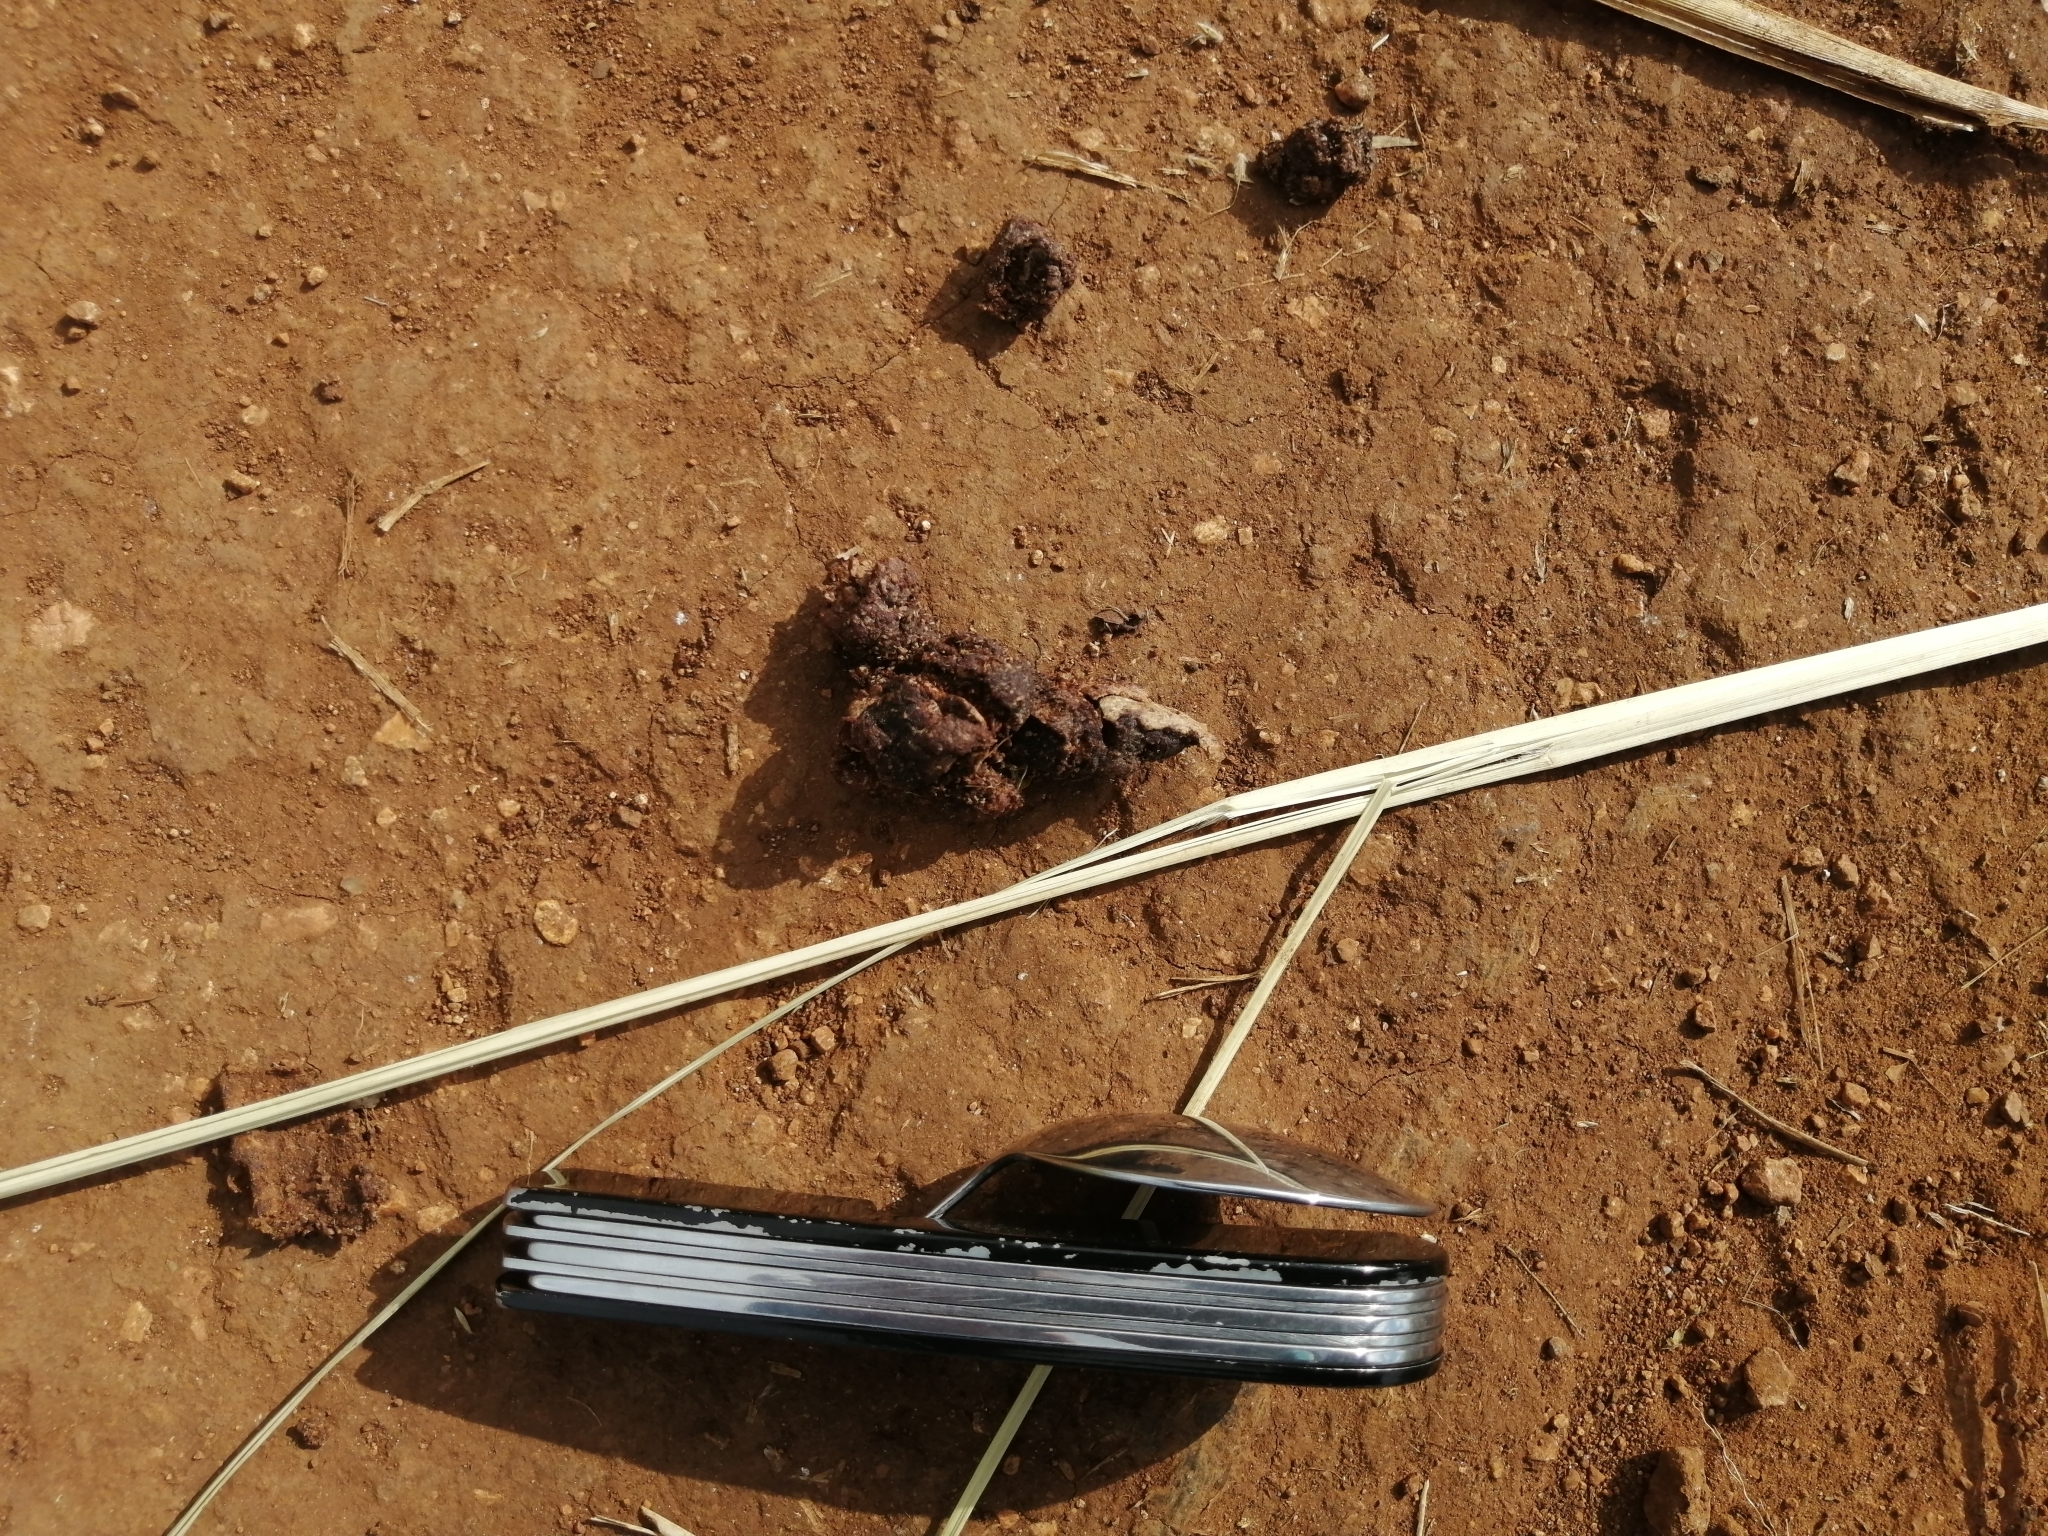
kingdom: Animalia
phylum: Chordata
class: Mammalia
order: Carnivora
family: Canidae
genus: Canis
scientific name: Canis latrans
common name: Coyote
